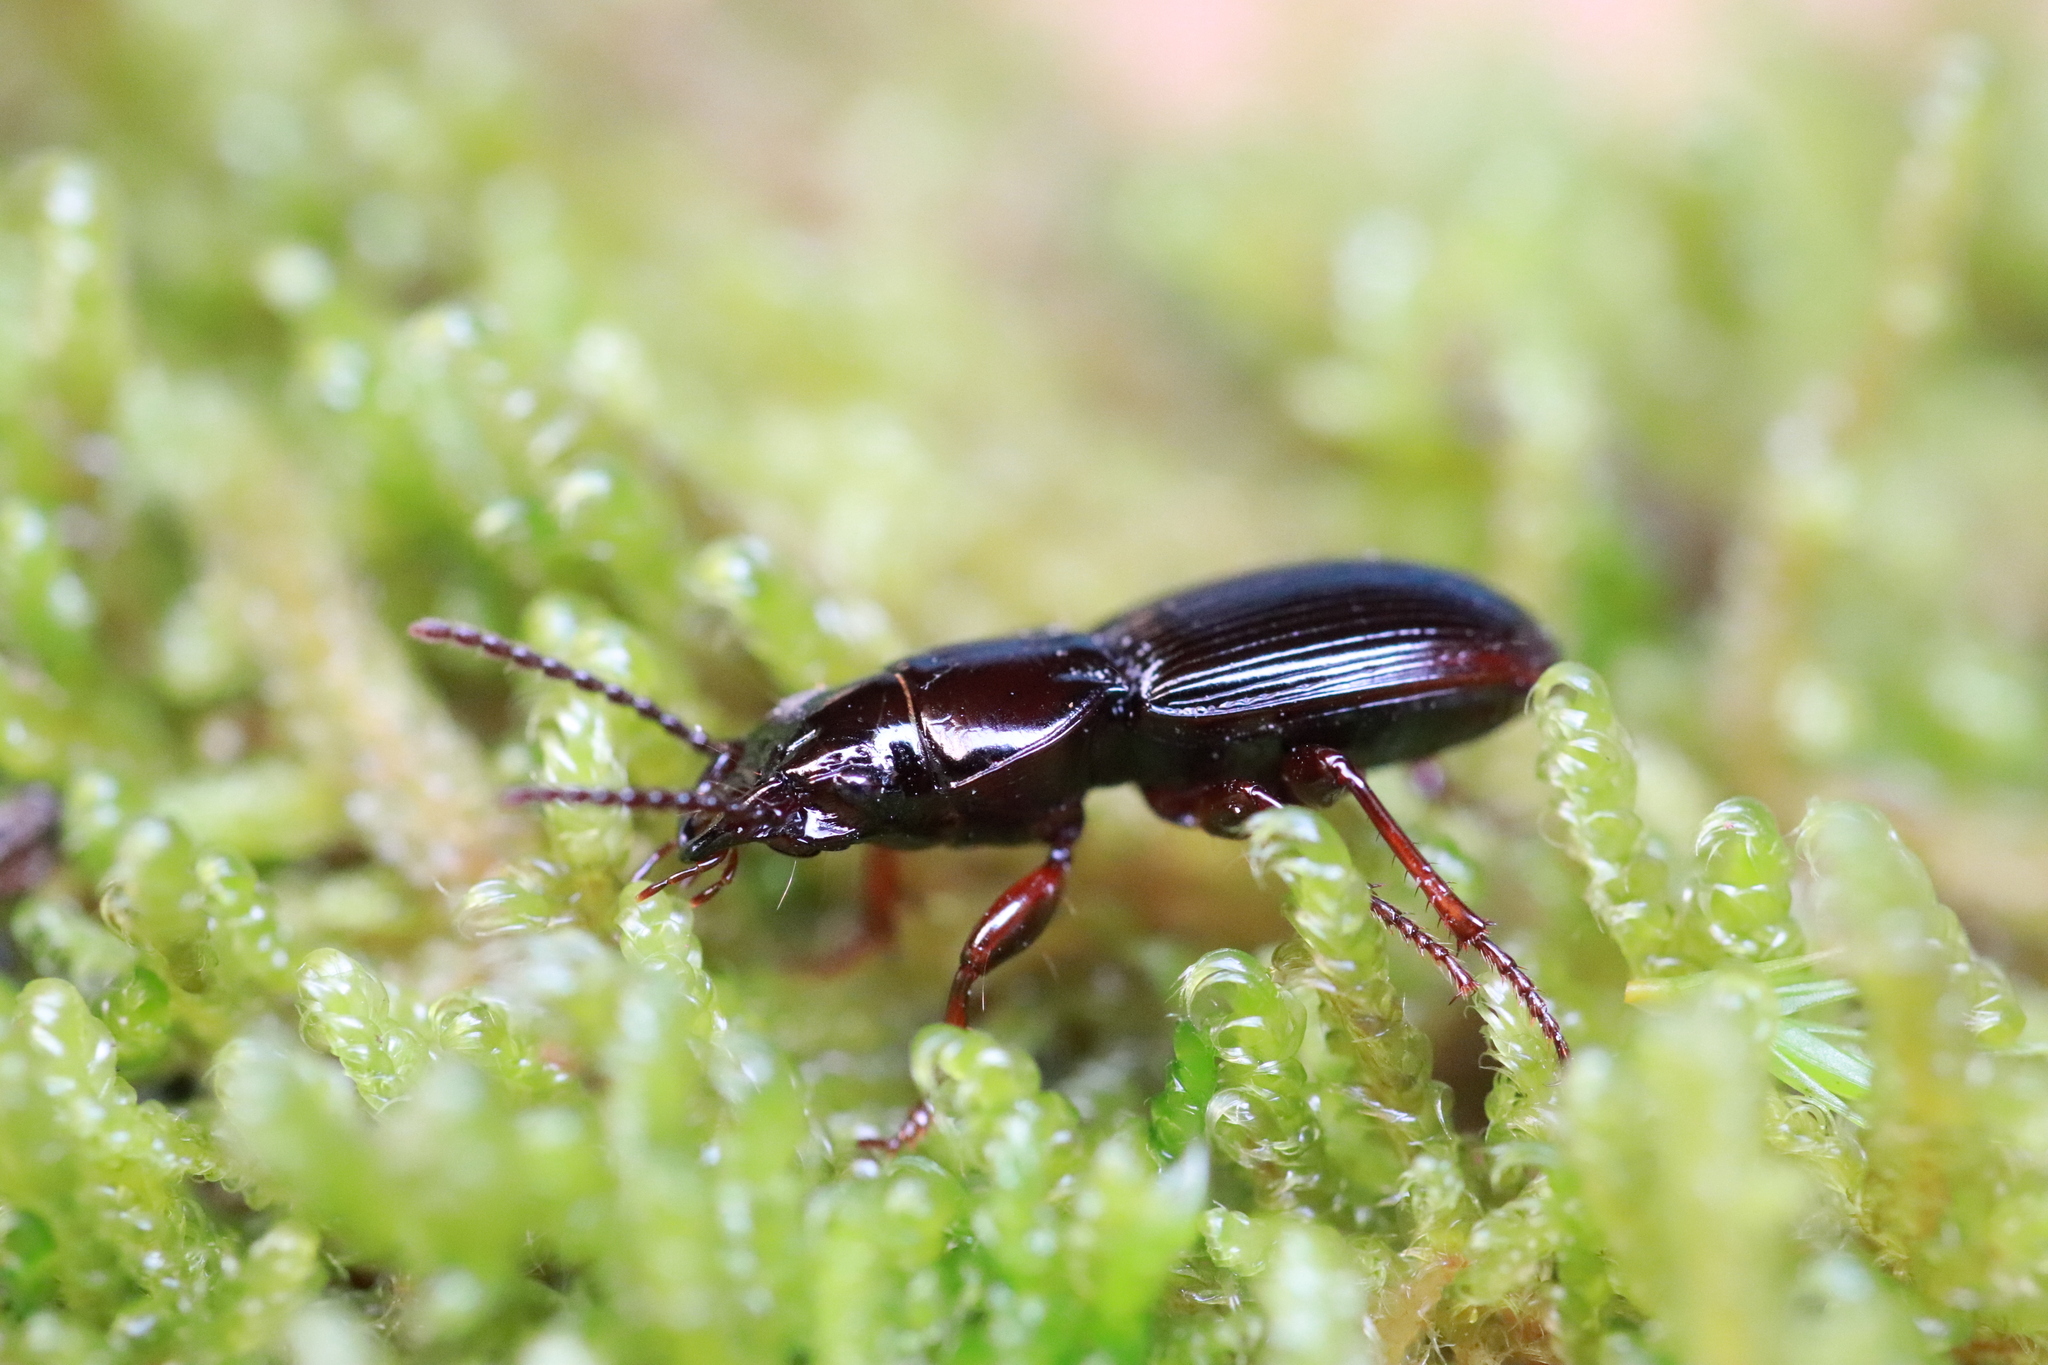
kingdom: Animalia
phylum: Arthropoda
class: Insecta
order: Coleoptera
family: Carabidae
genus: Molops
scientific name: Molops piceus
